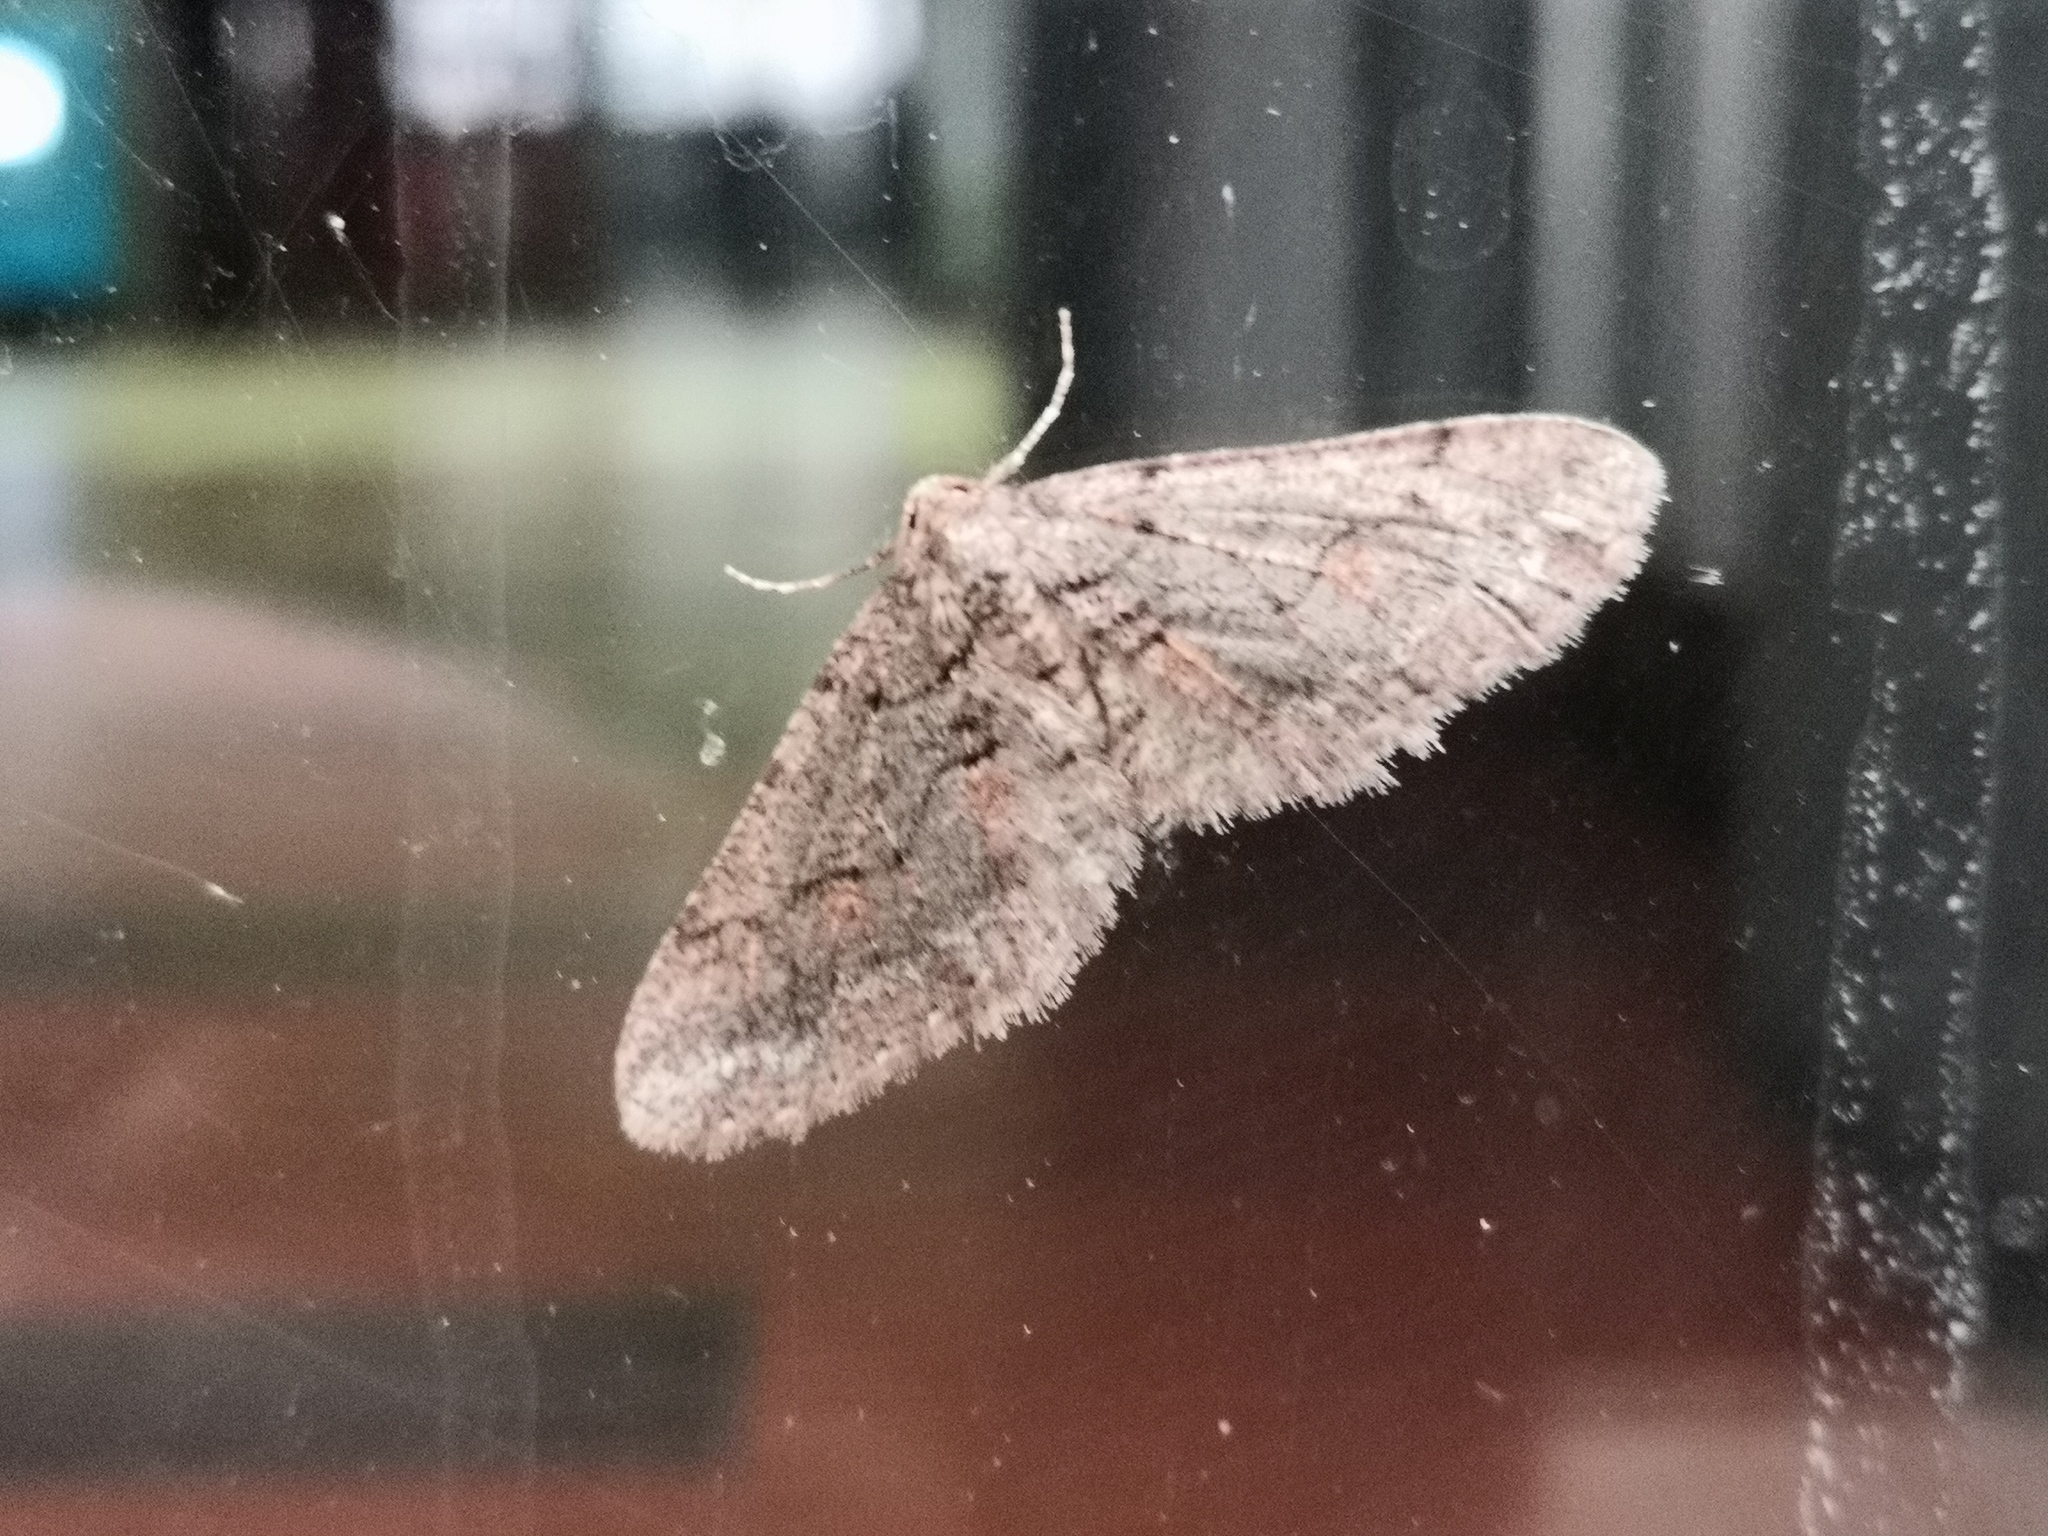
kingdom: Animalia
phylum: Arthropoda
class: Insecta
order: Lepidoptera
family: Geometridae
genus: Agriopis
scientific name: Agriopis bajaria
